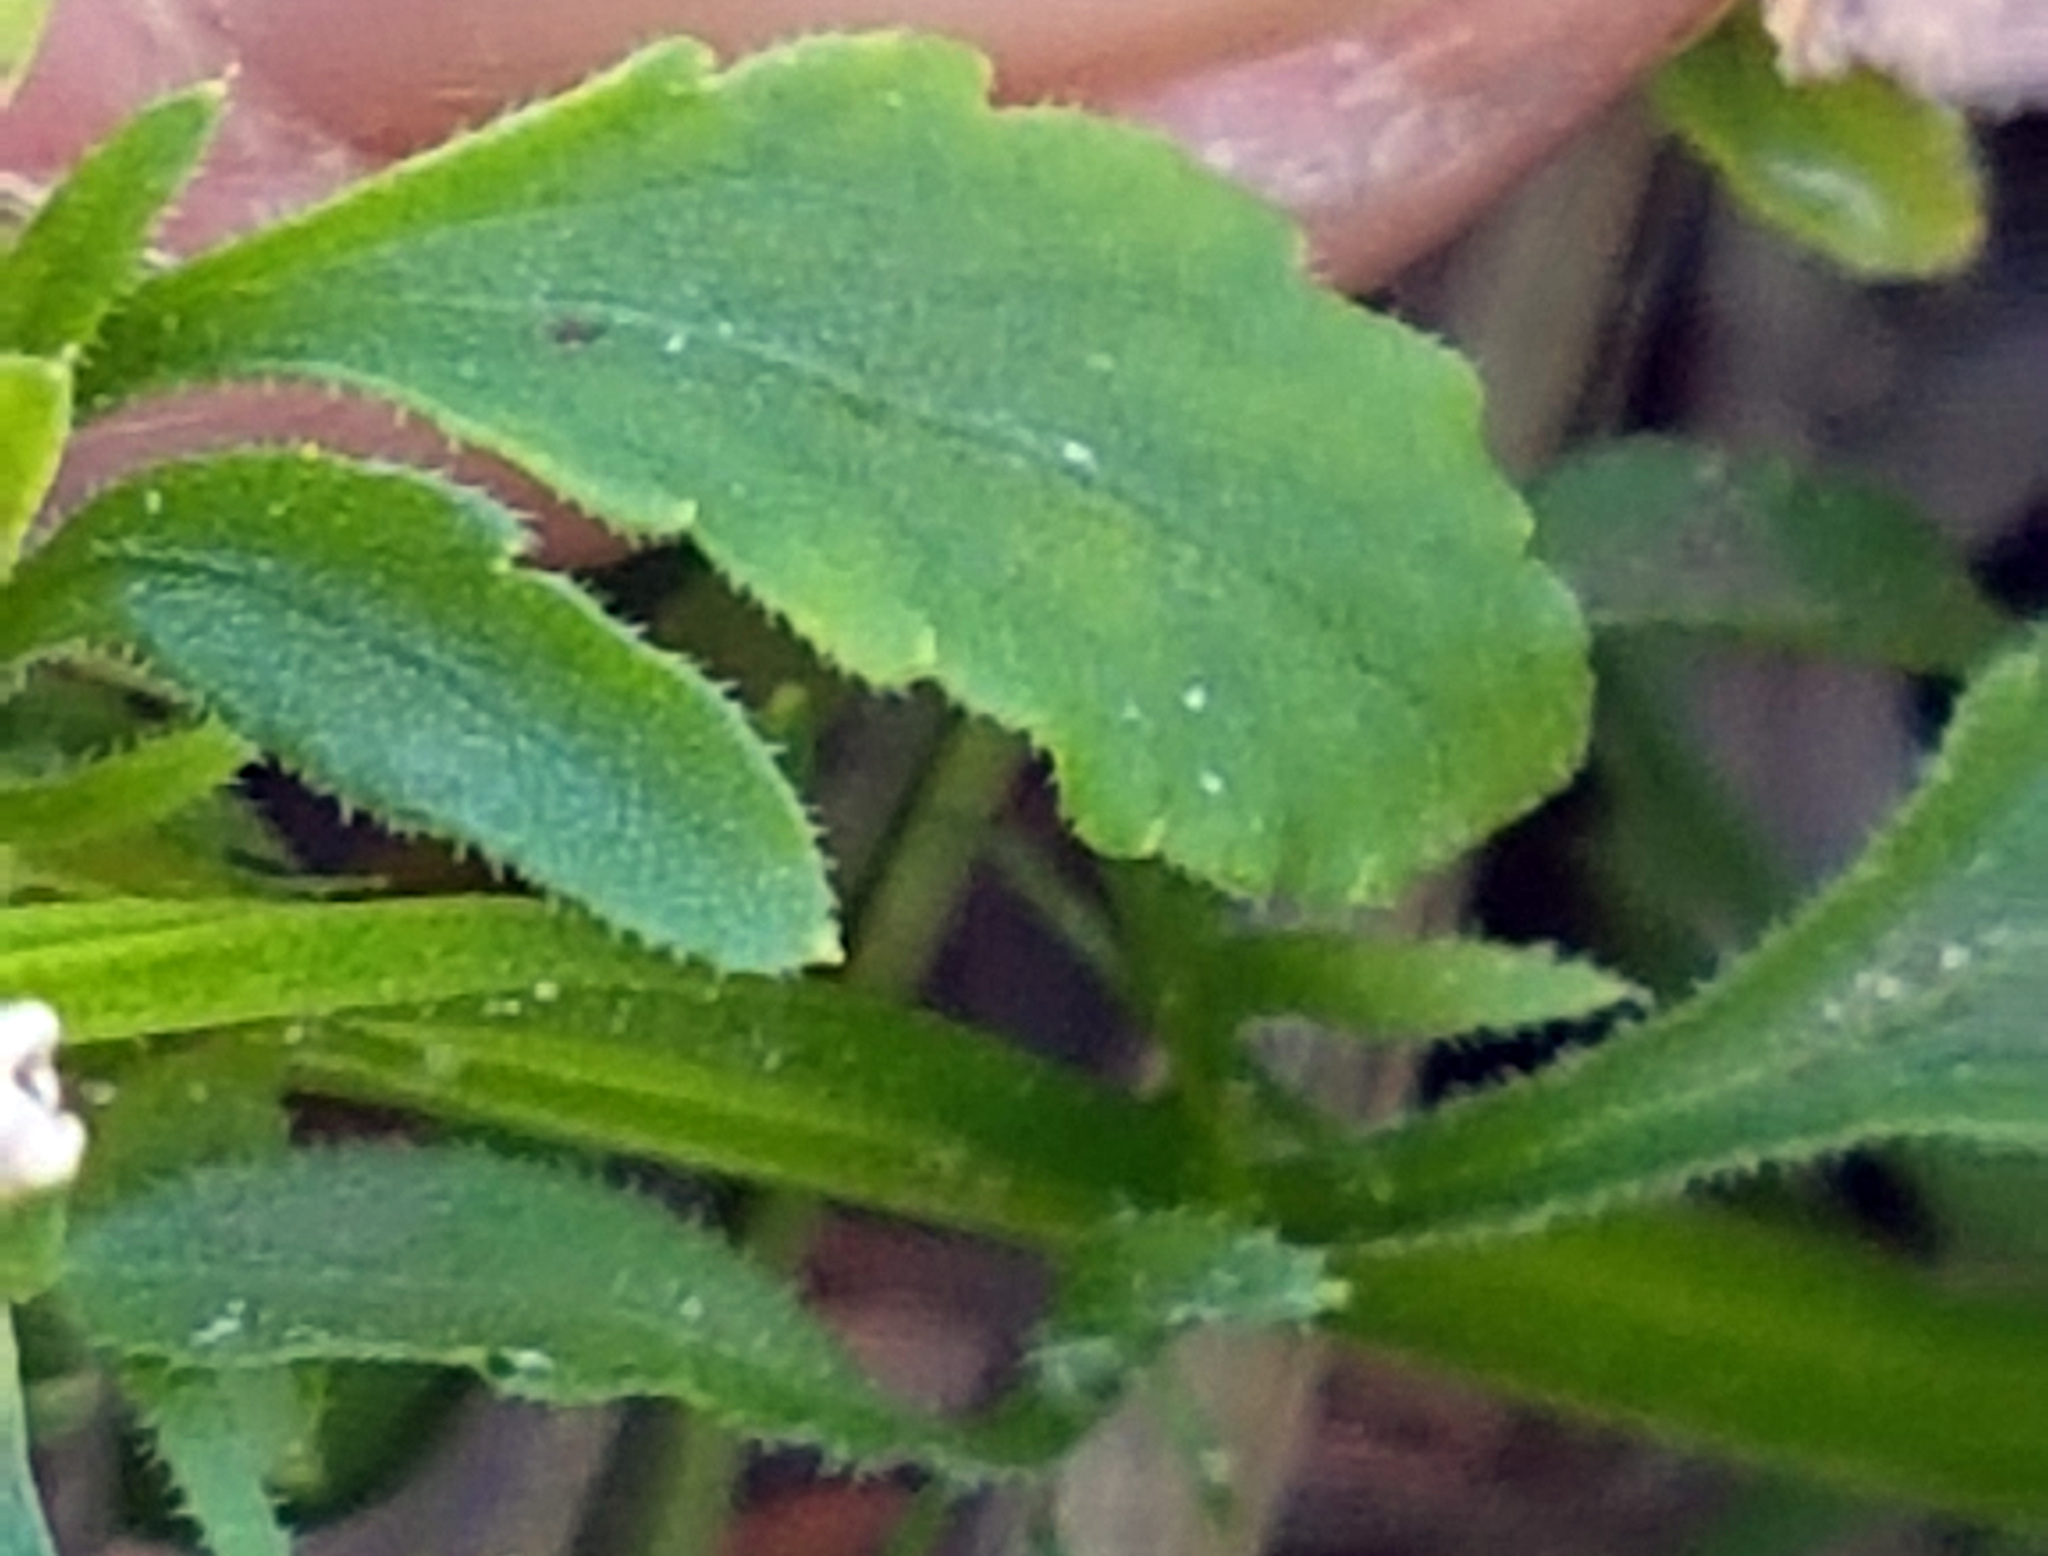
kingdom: Plantae
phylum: Tracheophyta
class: Magnoliopsida
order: Malpighiales
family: Violaceae
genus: Viola
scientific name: Viola arvensis
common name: Field pansy
